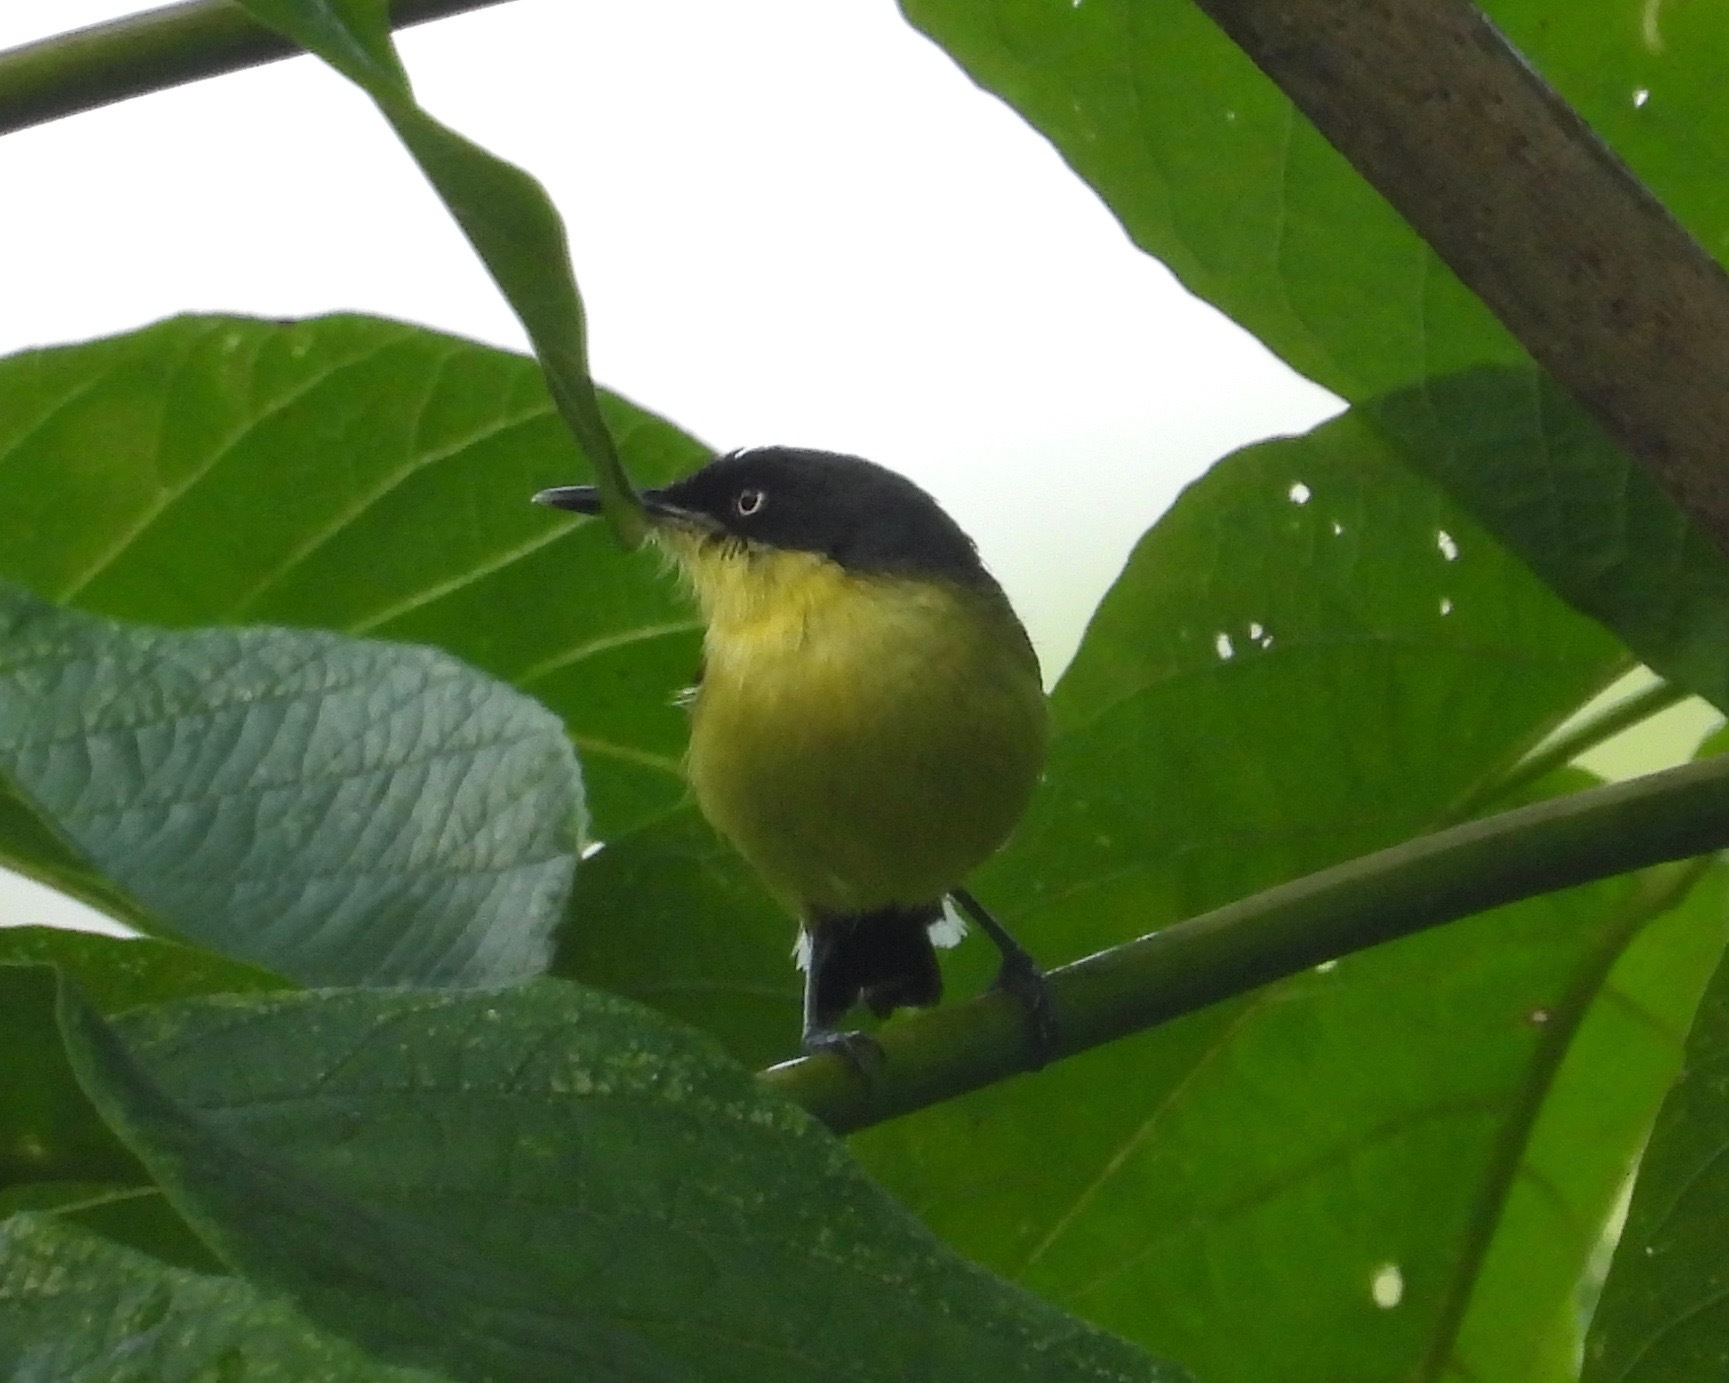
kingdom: Animalia
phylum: Chordata
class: Aves
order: Passeriformes
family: Tyrannidae
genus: Todirostrum
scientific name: Todirostrum cinereum
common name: Common tody-flycatcher
